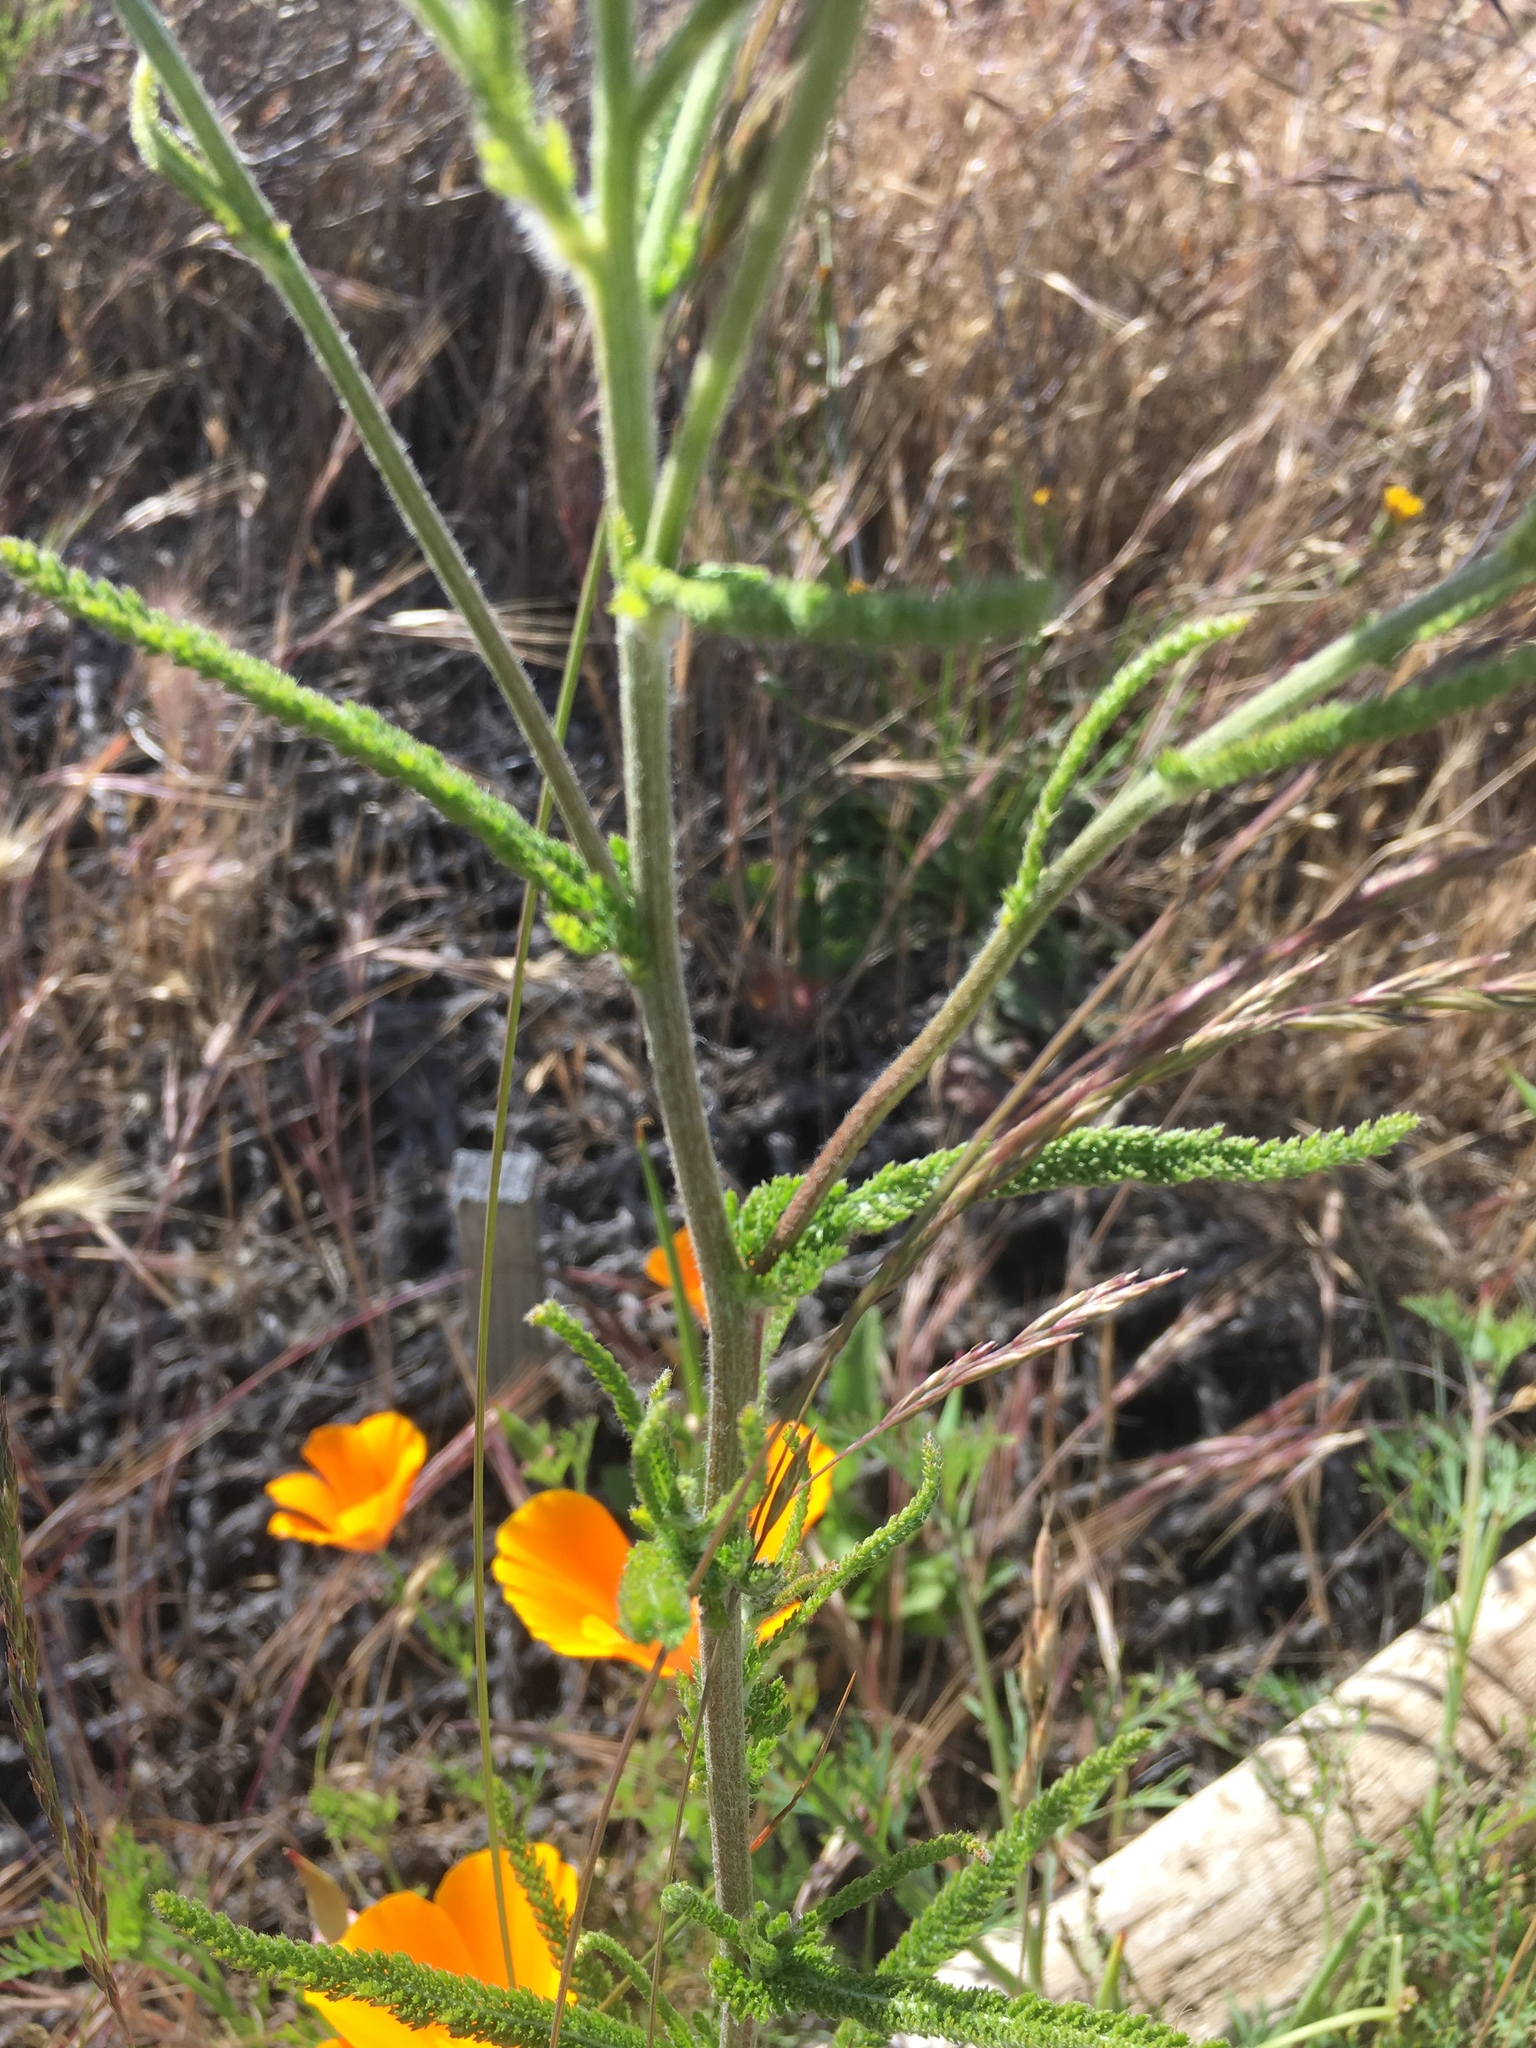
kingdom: Plantae
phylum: Tracheophyta
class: Magnoliopsida
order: Asterales
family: Asteraceae
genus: Achillea
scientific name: Achillea millefolium
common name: Yarrow
